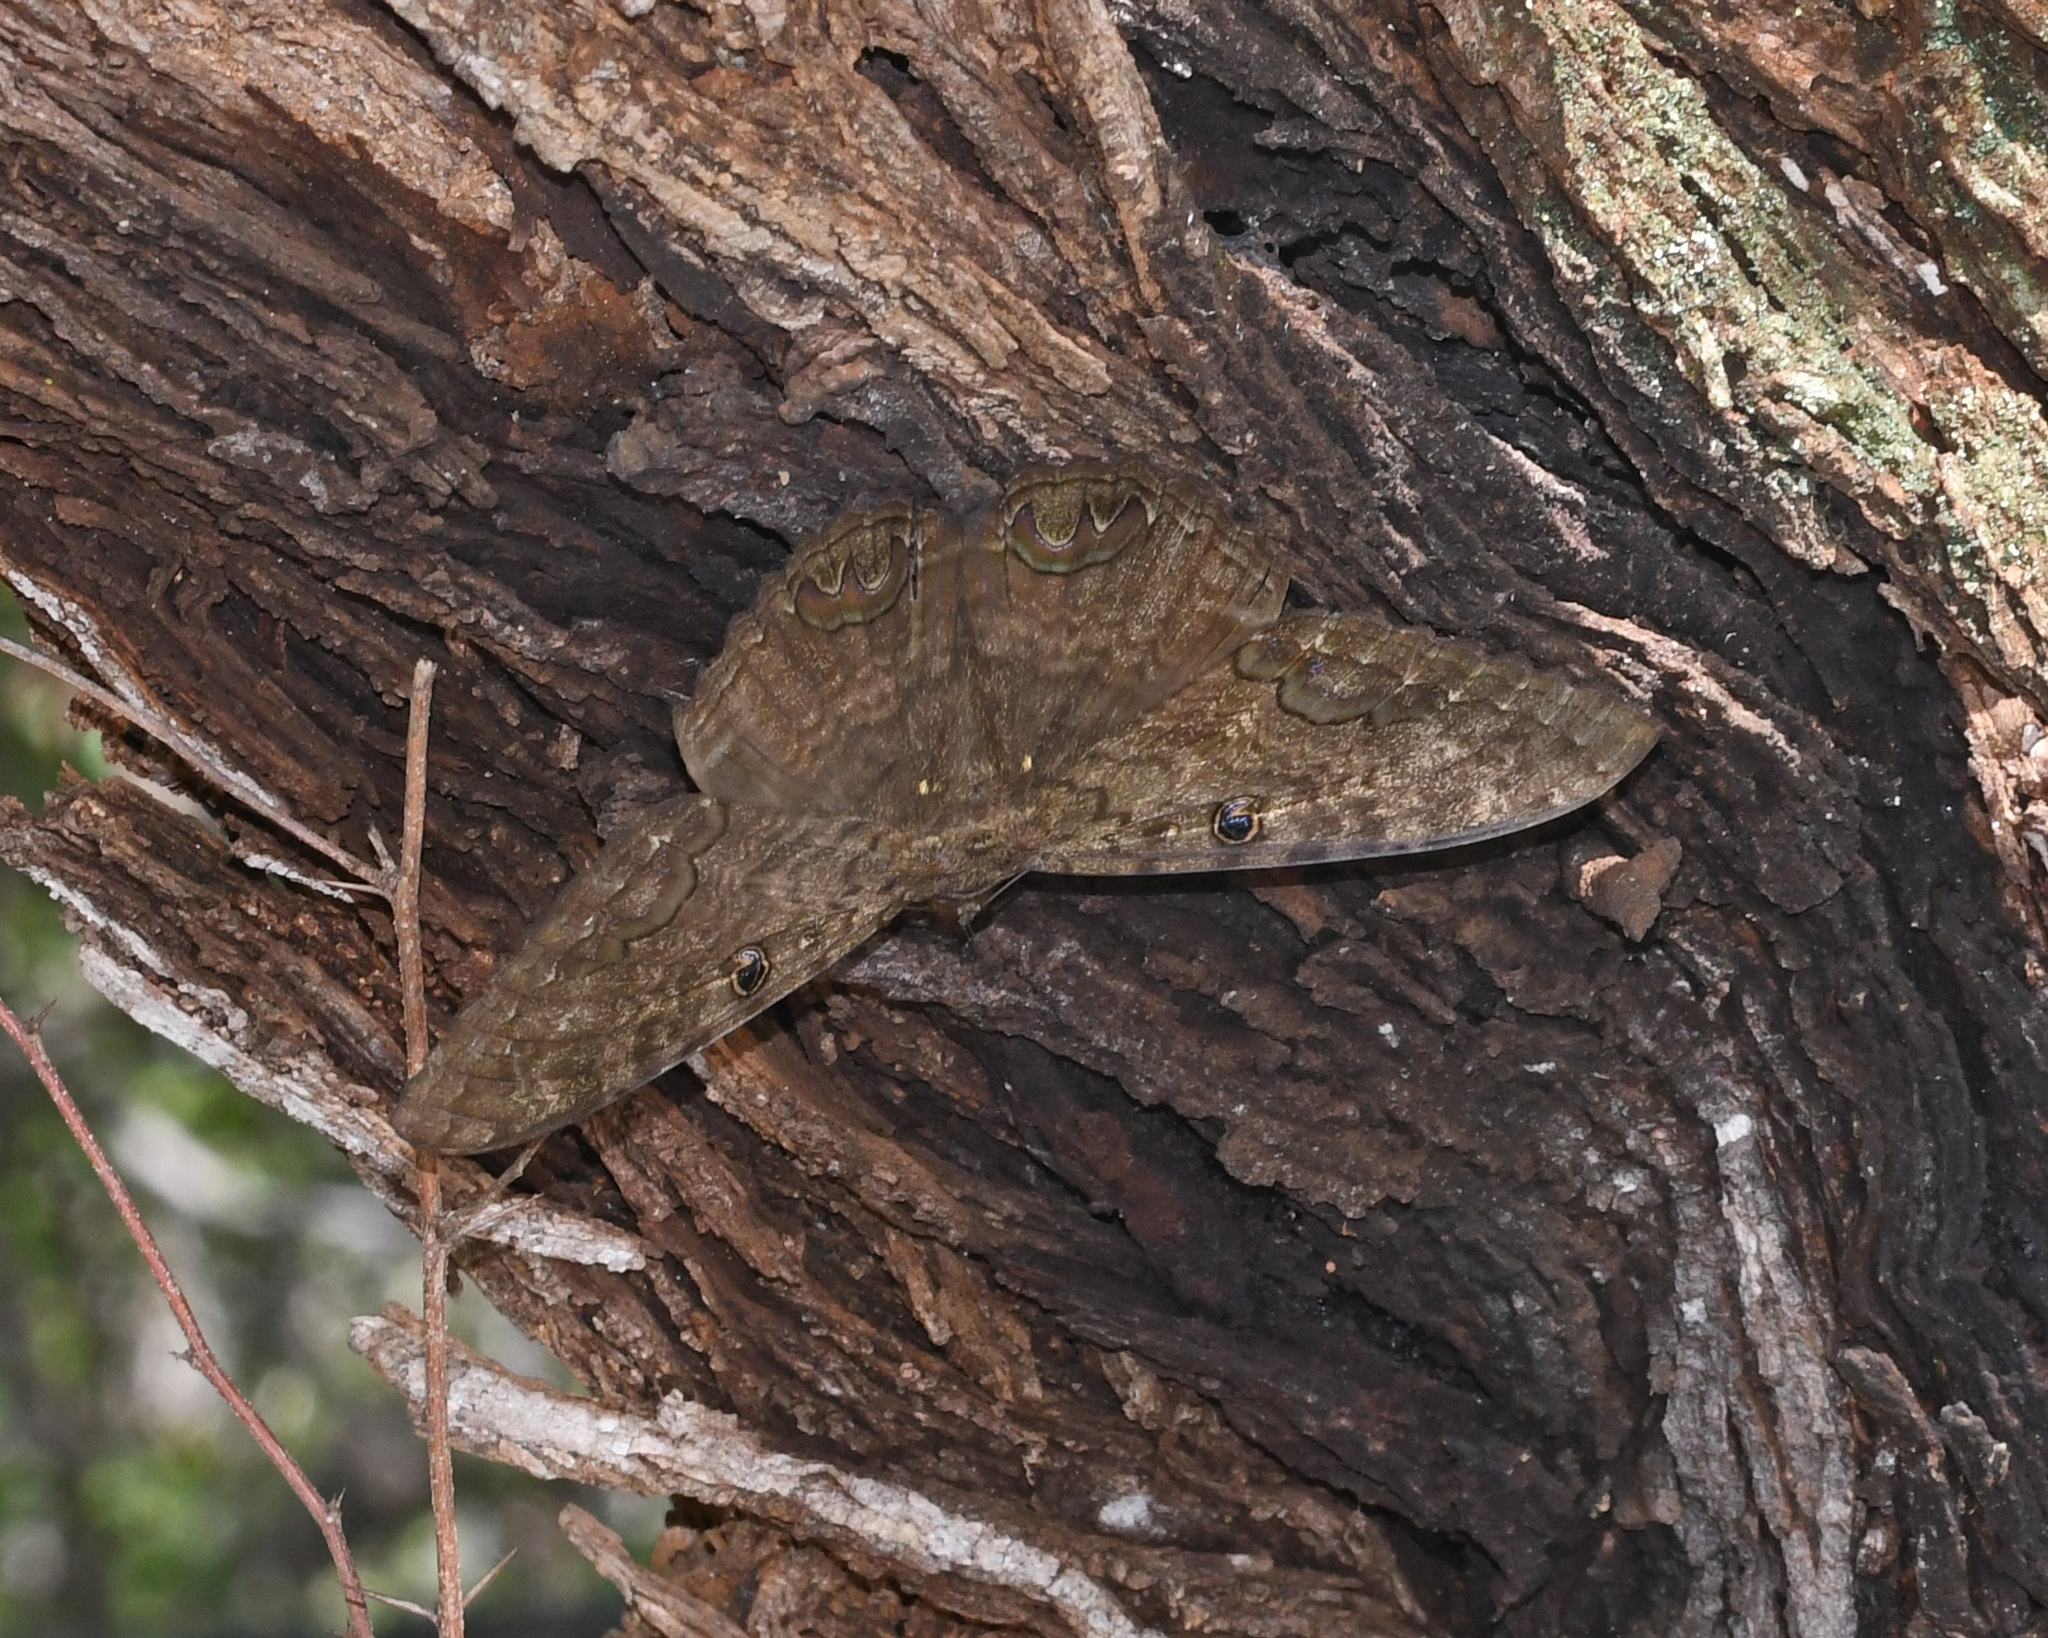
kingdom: Animalia
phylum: Arthropoda
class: Insecta
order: Lepidoptera
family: Erebidae
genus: Ascalapha
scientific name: Ascalapha odorata
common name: Black witch
